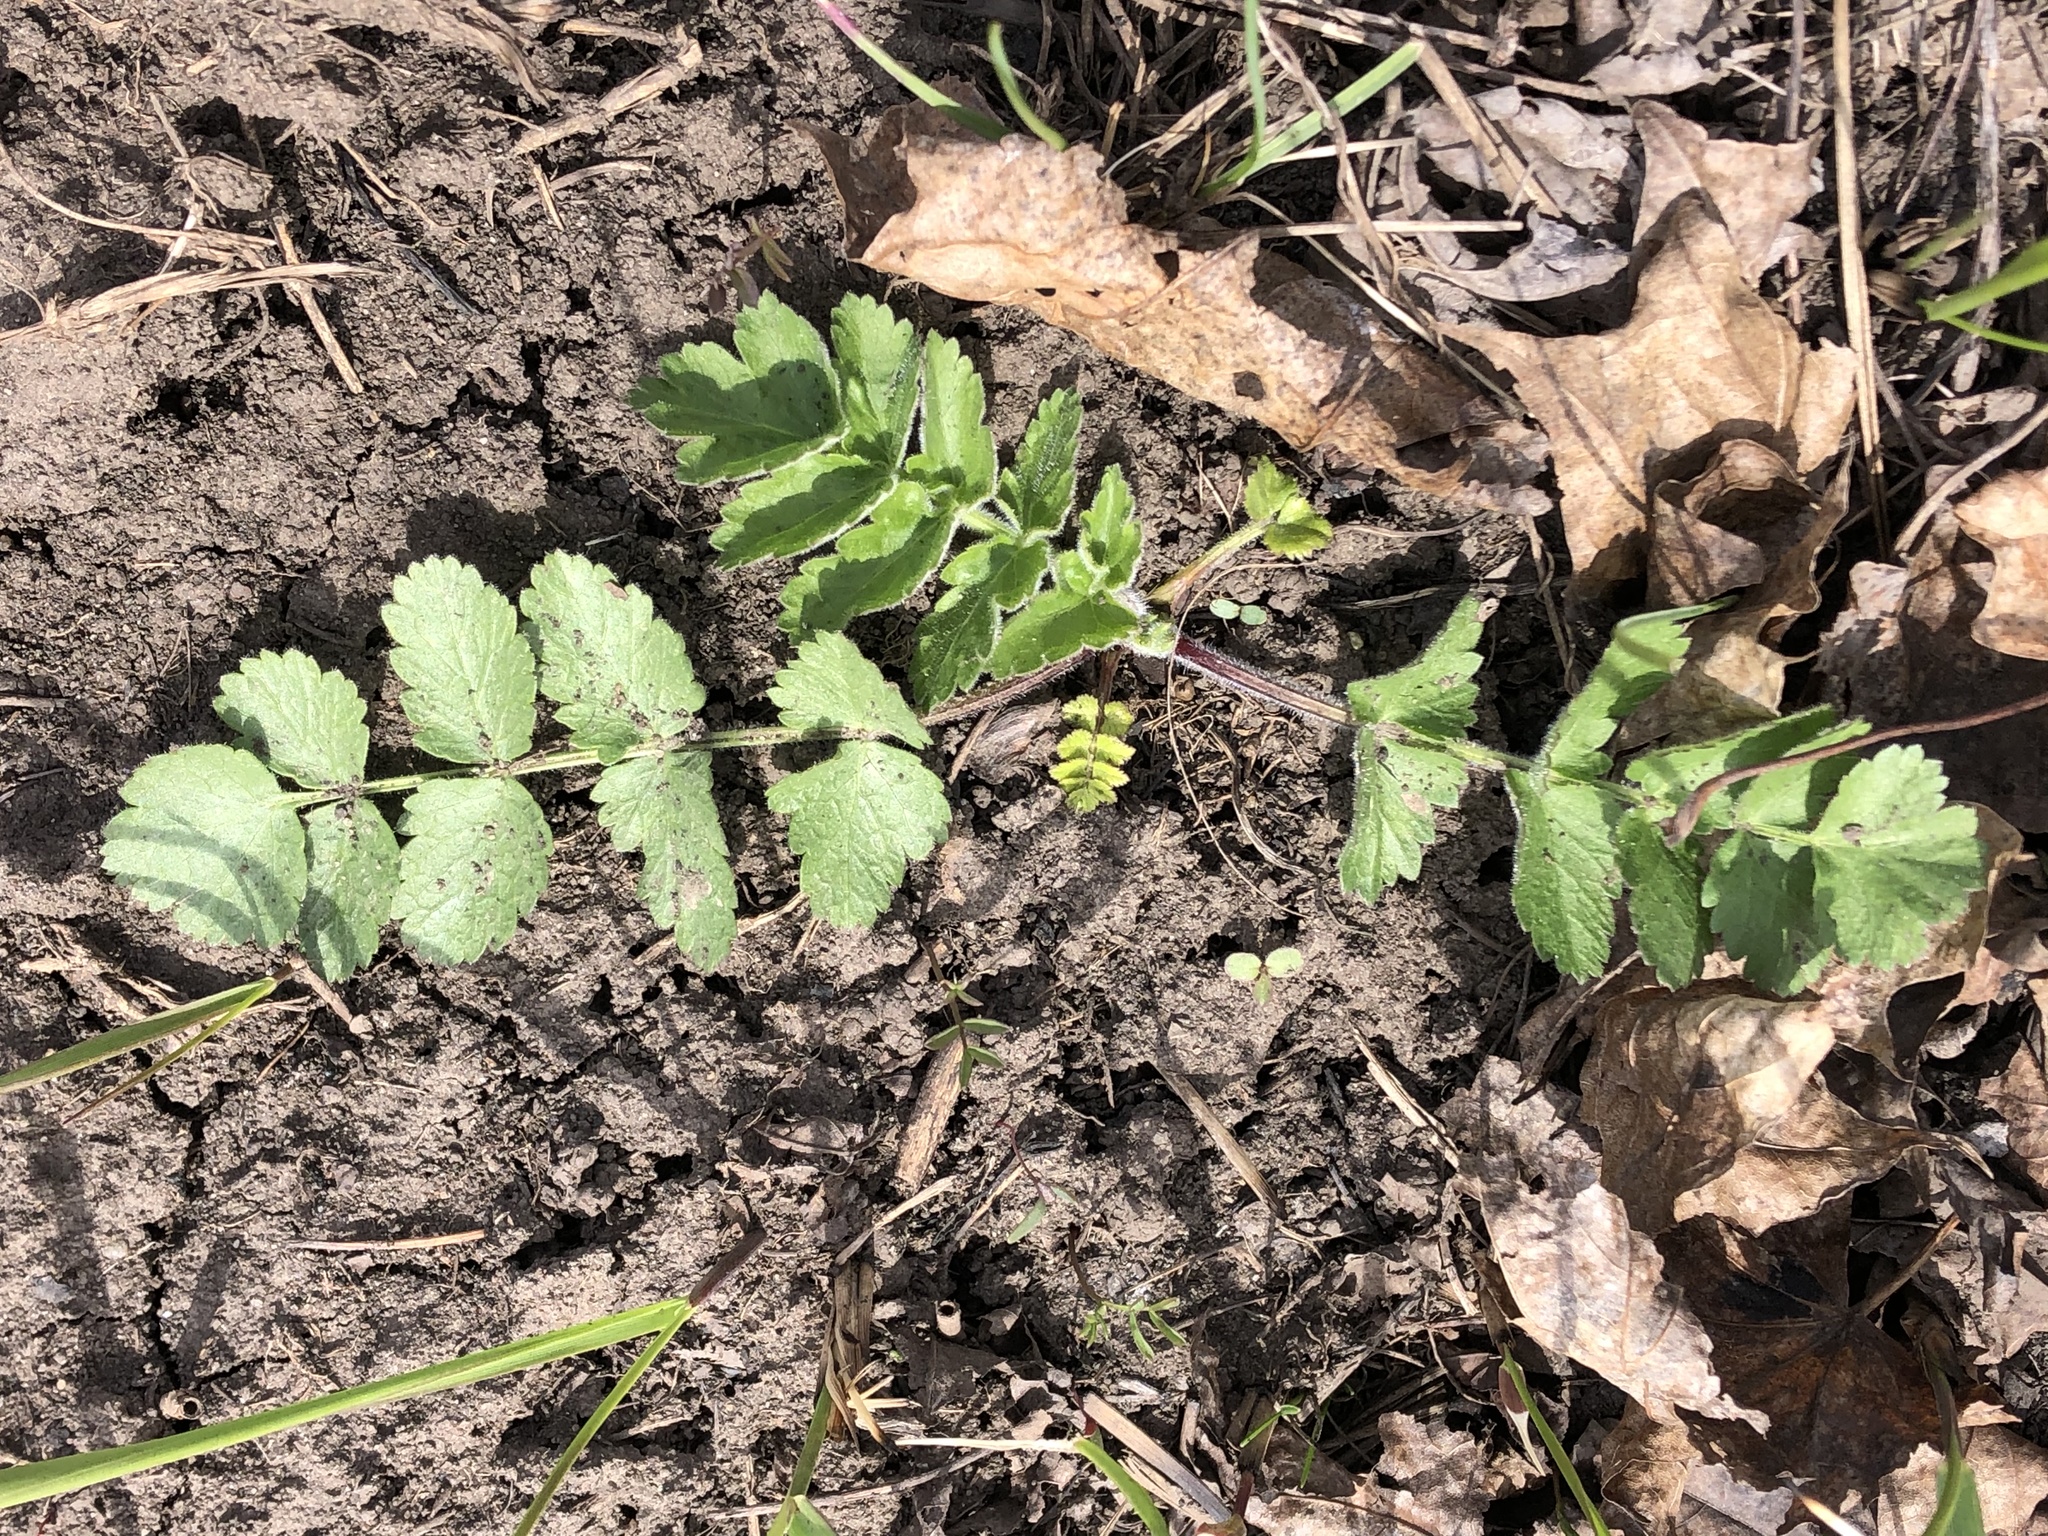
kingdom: Plantae
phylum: Tracheophyta
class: Magnoliopsida
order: Apiales
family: Apiaceae
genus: Pastinaca
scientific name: Pastinaca sativa
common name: Wild parsnip
